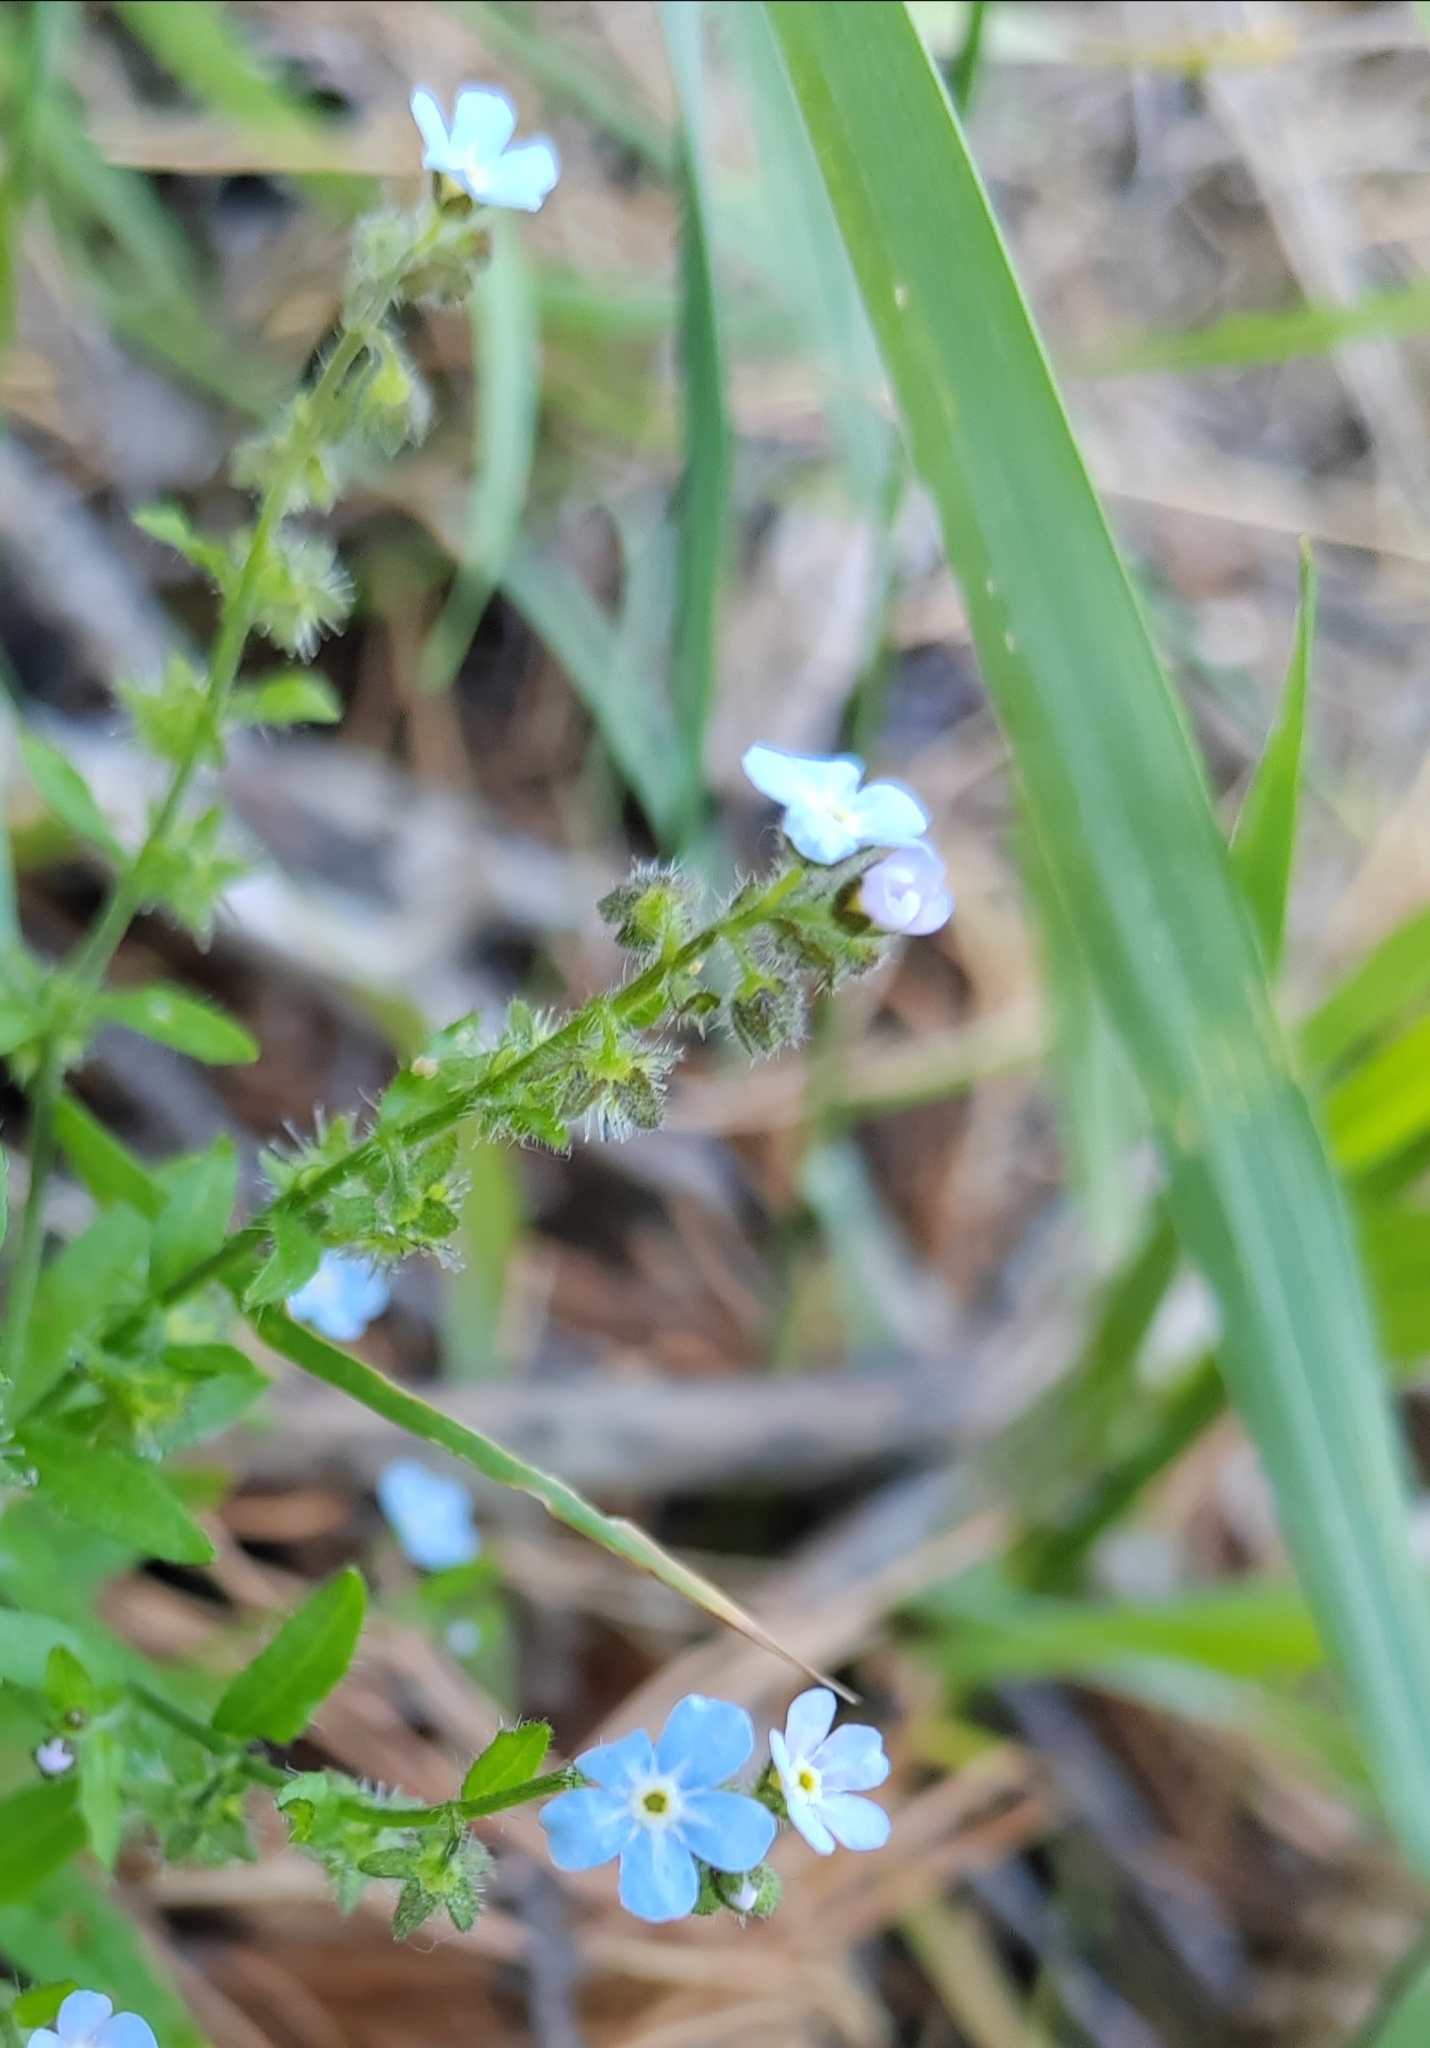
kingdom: Plantae
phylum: Tracheophyta
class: Magnoliopsida
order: Boraginales
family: Boraginaceae
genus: Hackelia
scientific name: Hackelia deflexa
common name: Nodding stickseed
